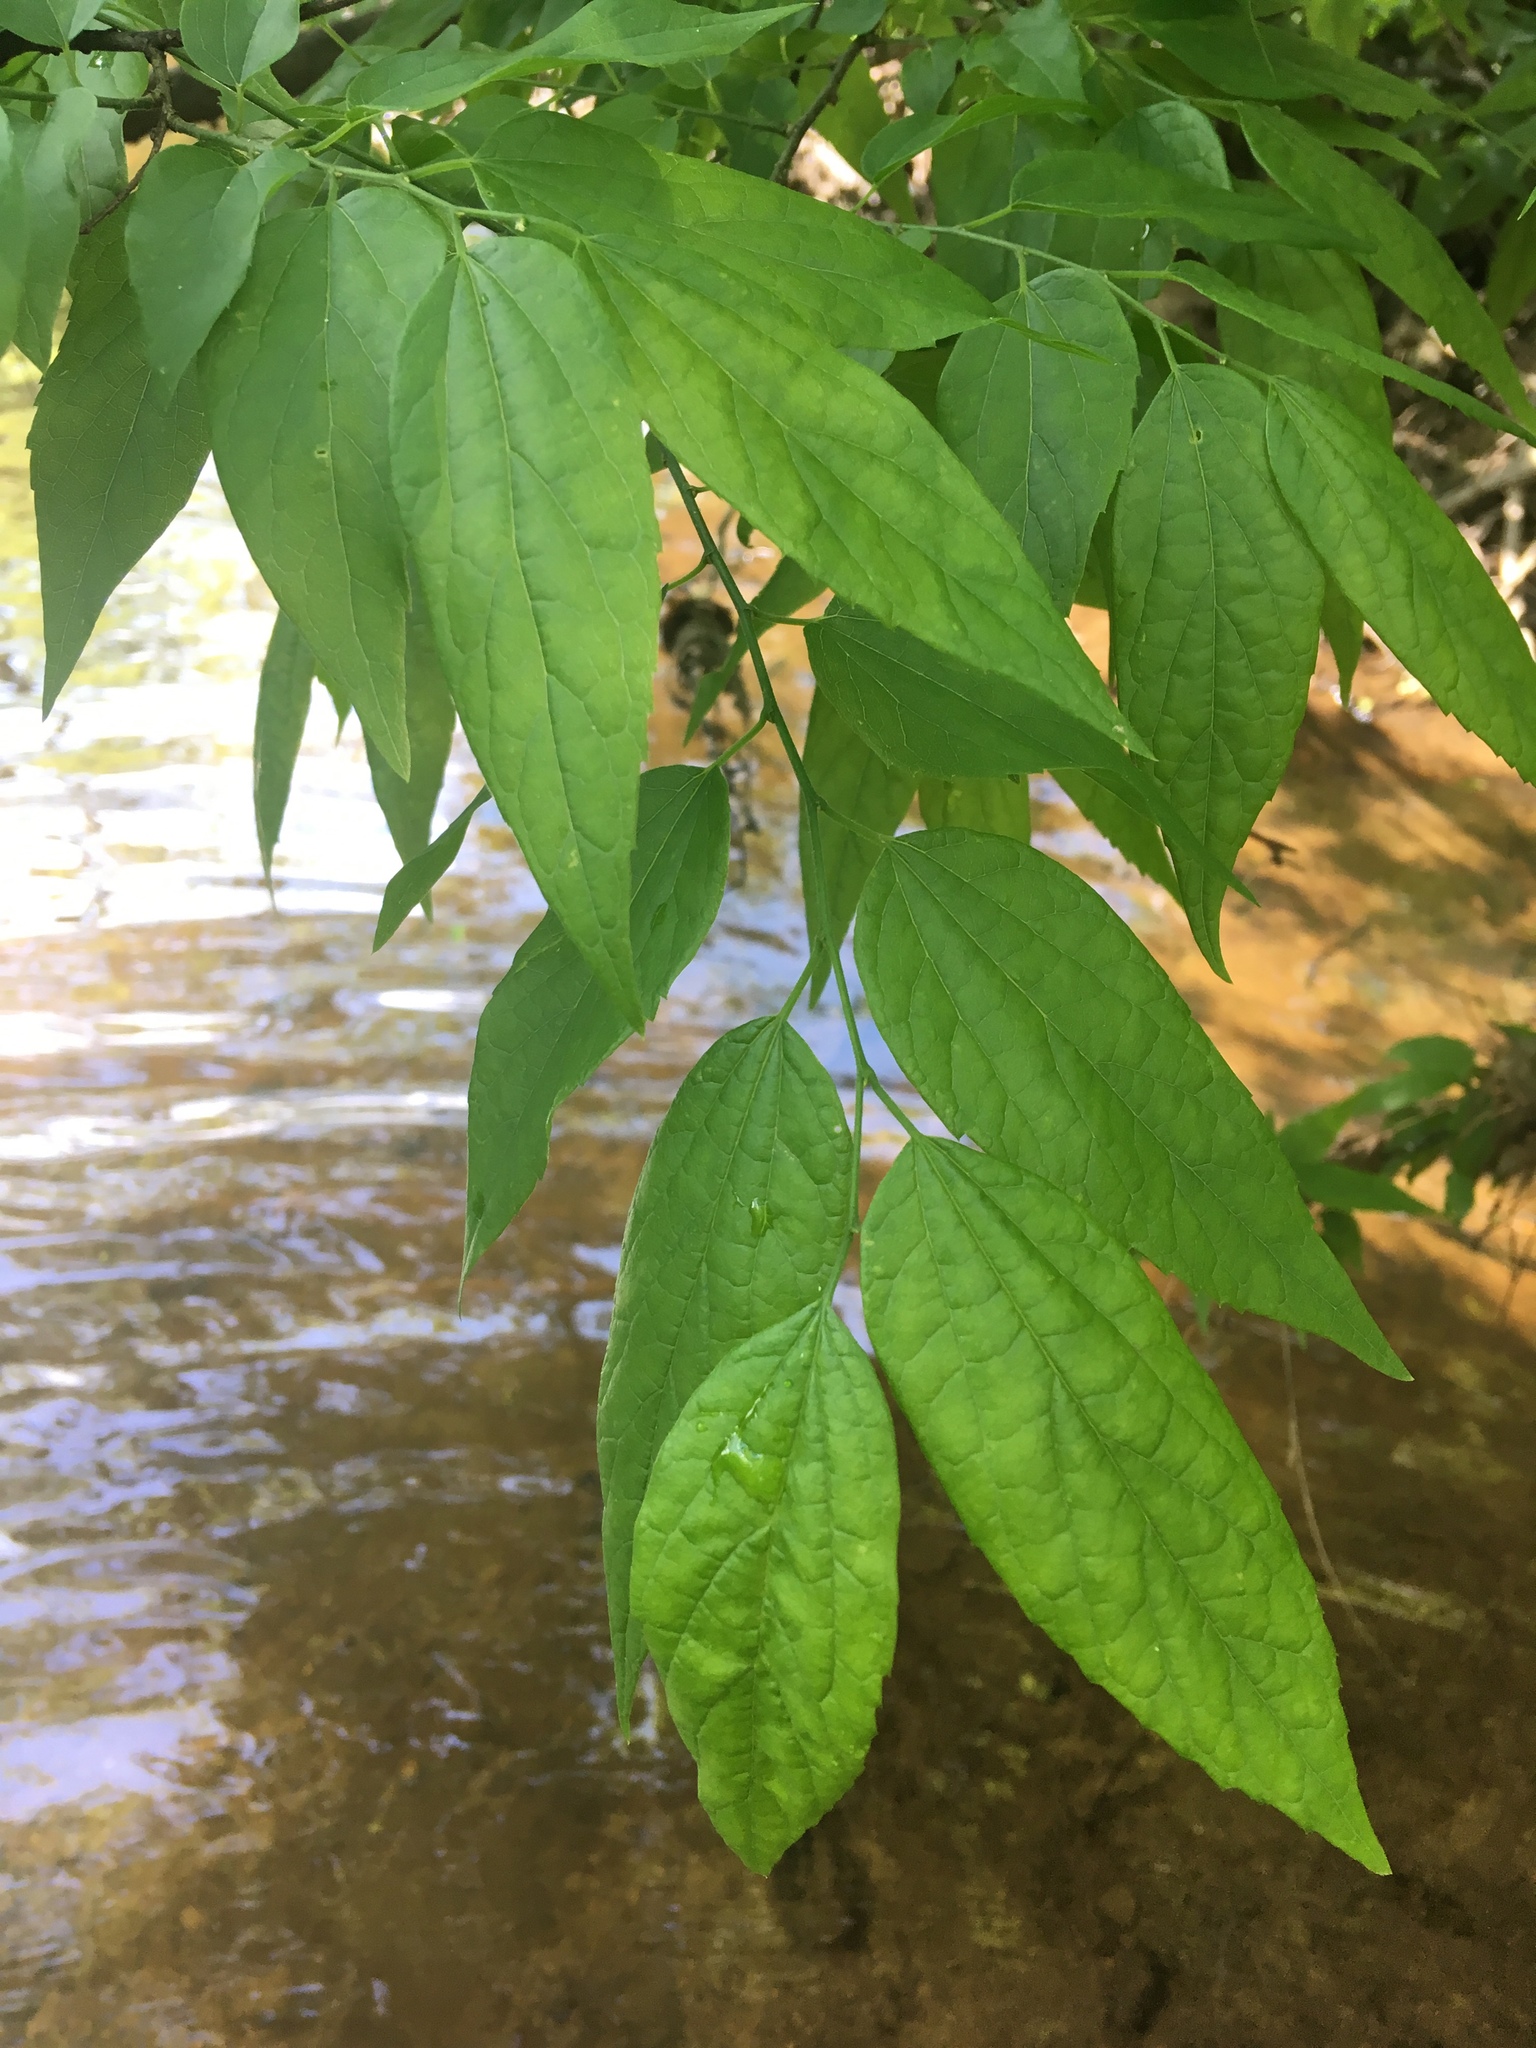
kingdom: Plantae
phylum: Tracheophyta
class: Magnoliopsida
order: Rosales
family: Cannabaceae
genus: Celtis
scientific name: Celtis laevigata
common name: Sugarberry
